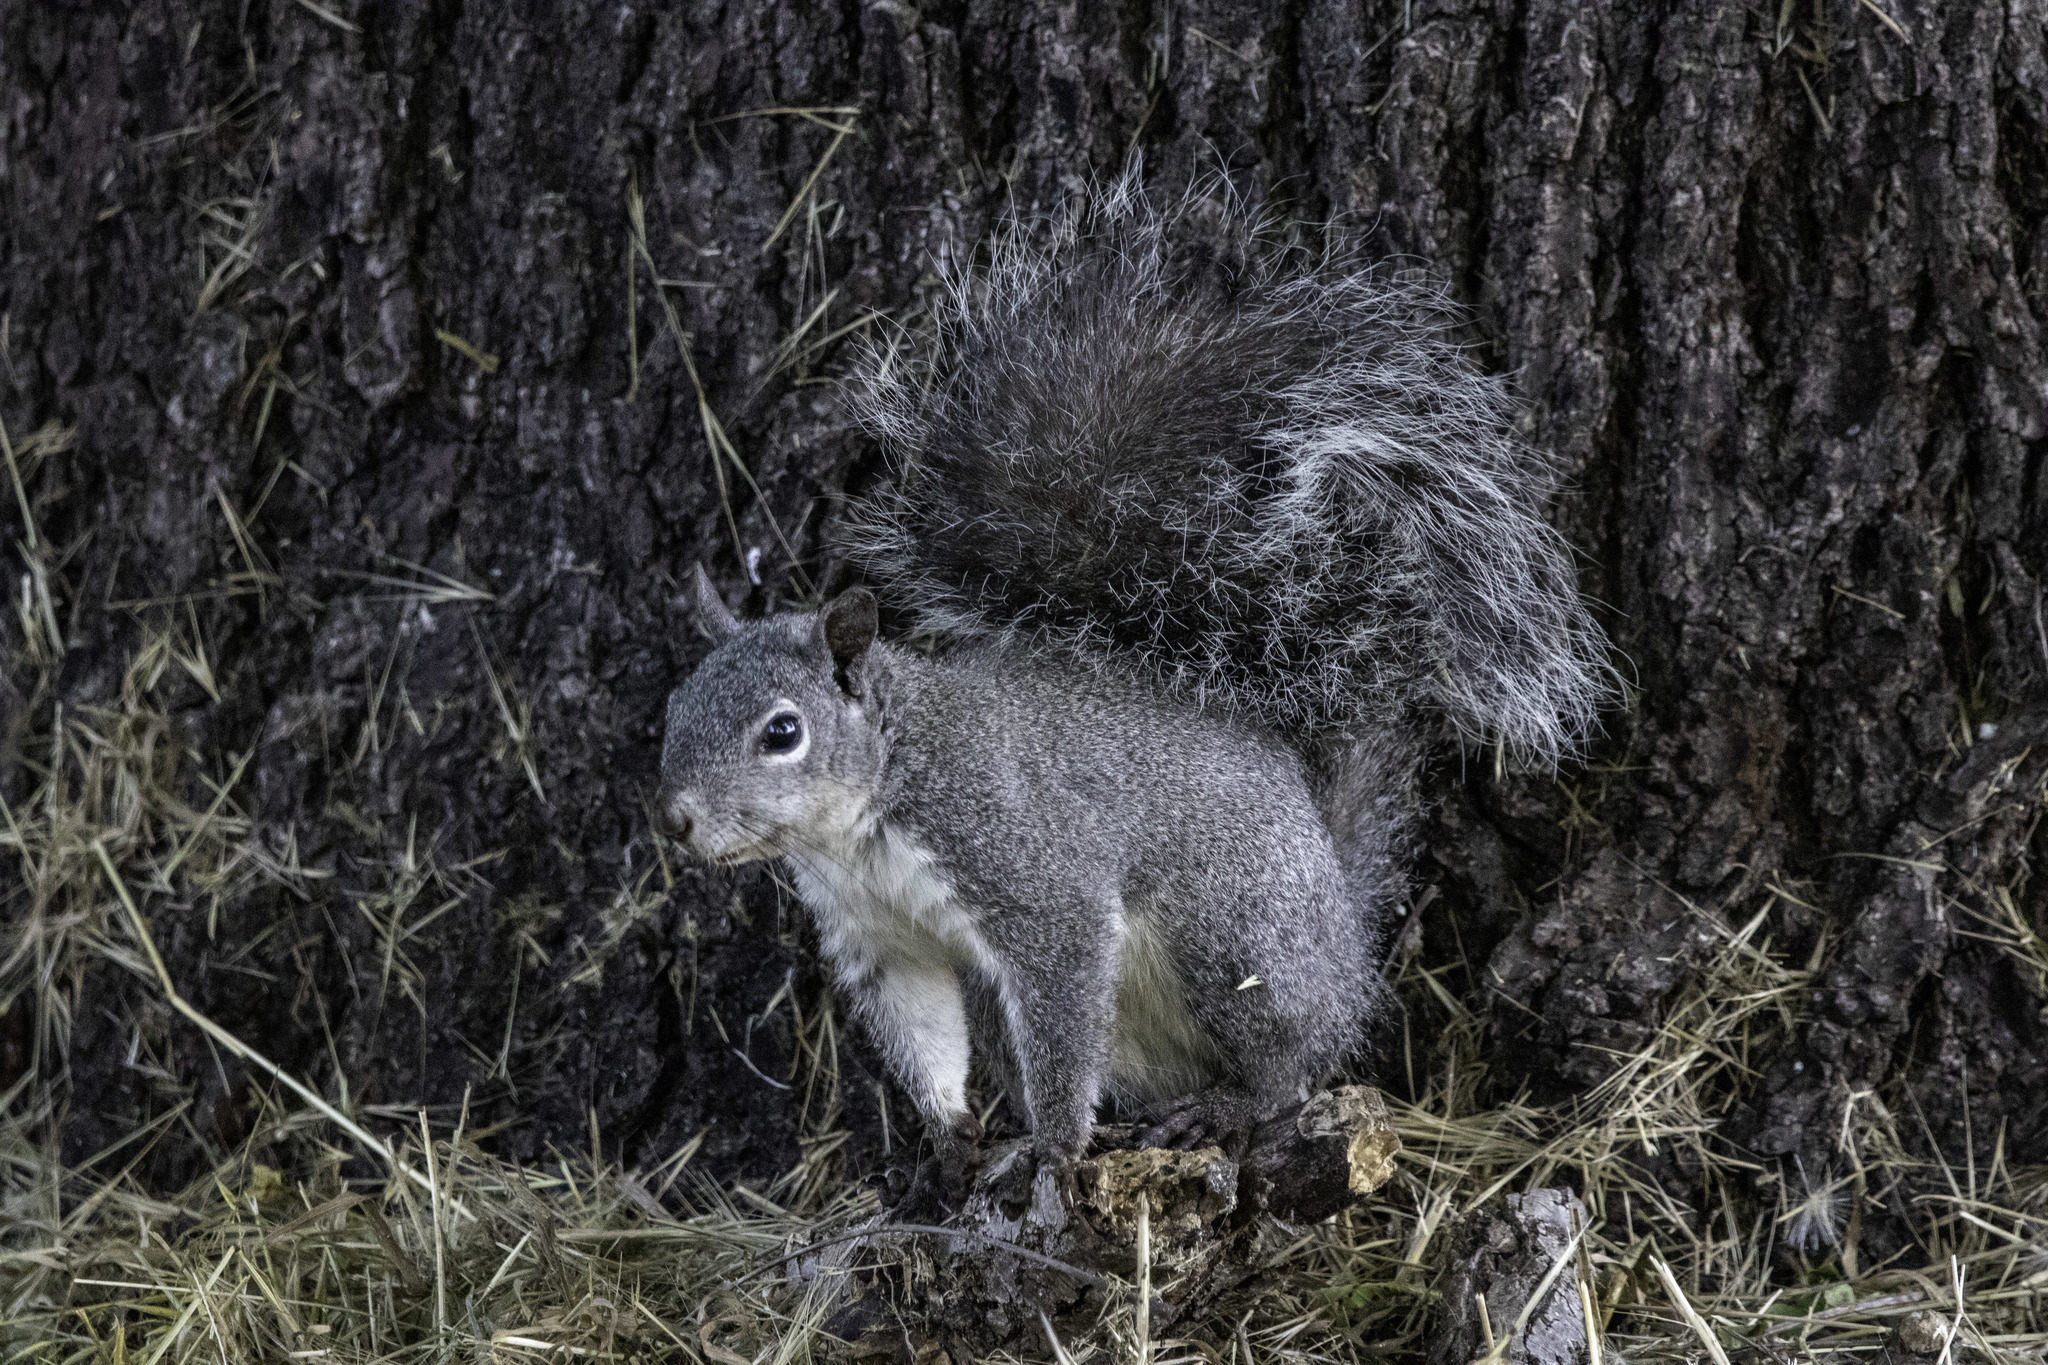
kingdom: Animalia
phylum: Chordata
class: Mammalia
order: Rodentia
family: Sciuridae
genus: Sciurus
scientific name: Sciurus griseus
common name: Western gray squirrel
